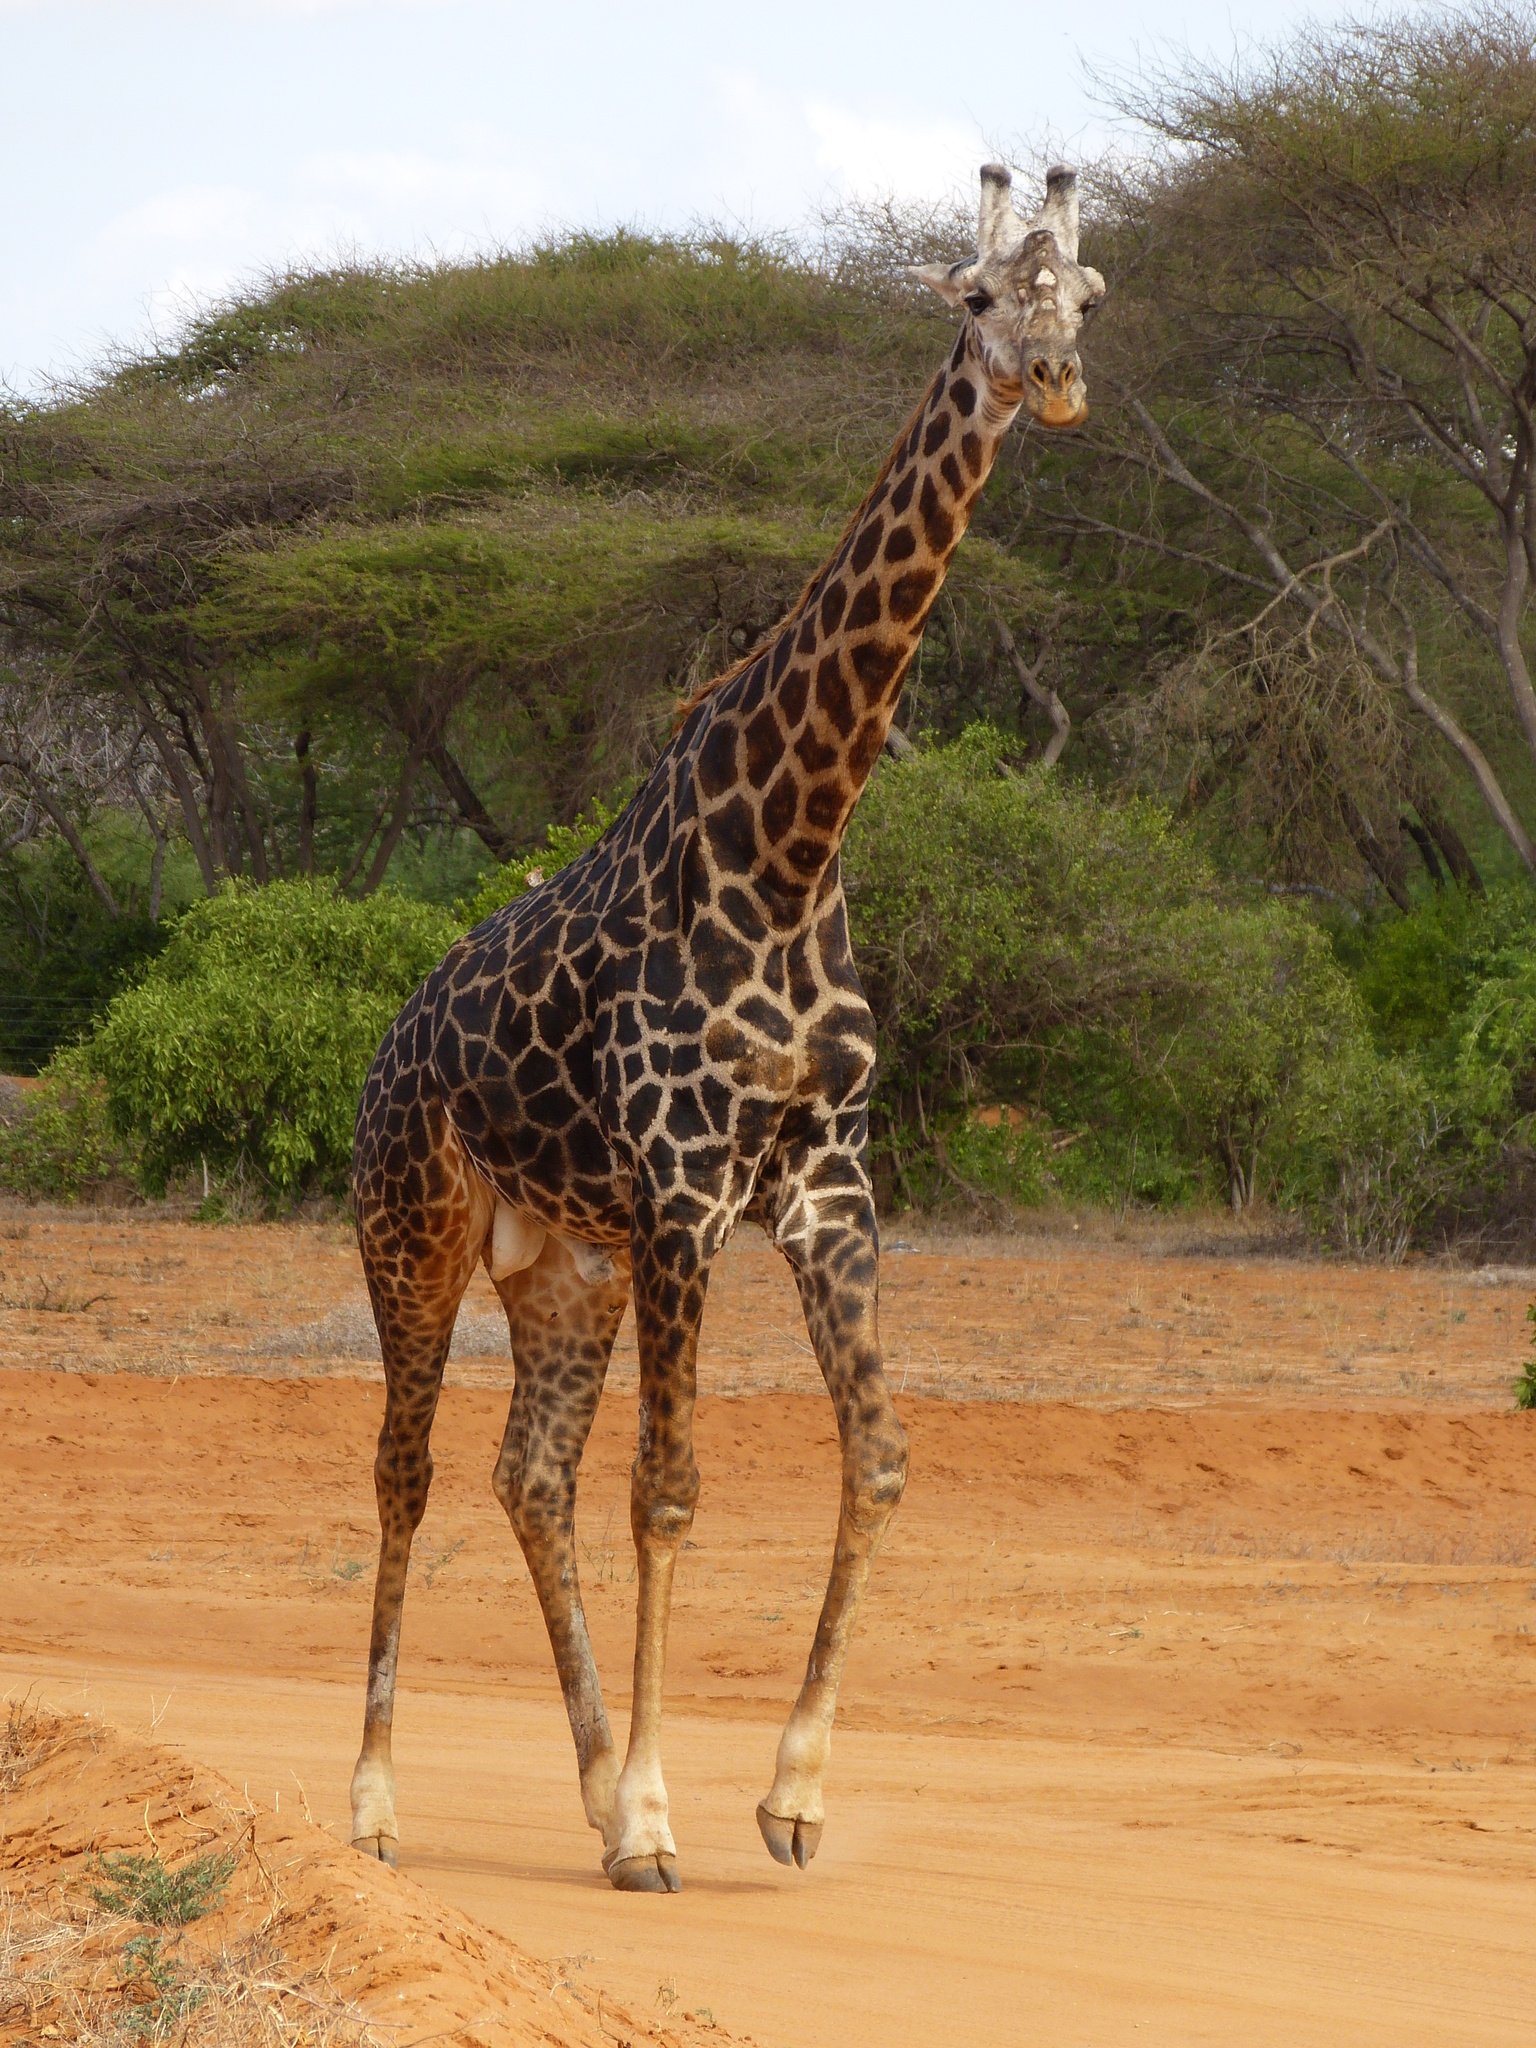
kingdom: Animalia
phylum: Chordata
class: Mammalia
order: Artiodactyla
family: Giraffidae
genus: Giraffa
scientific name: Giraffa tippelskirchi
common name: Masai giraffe
